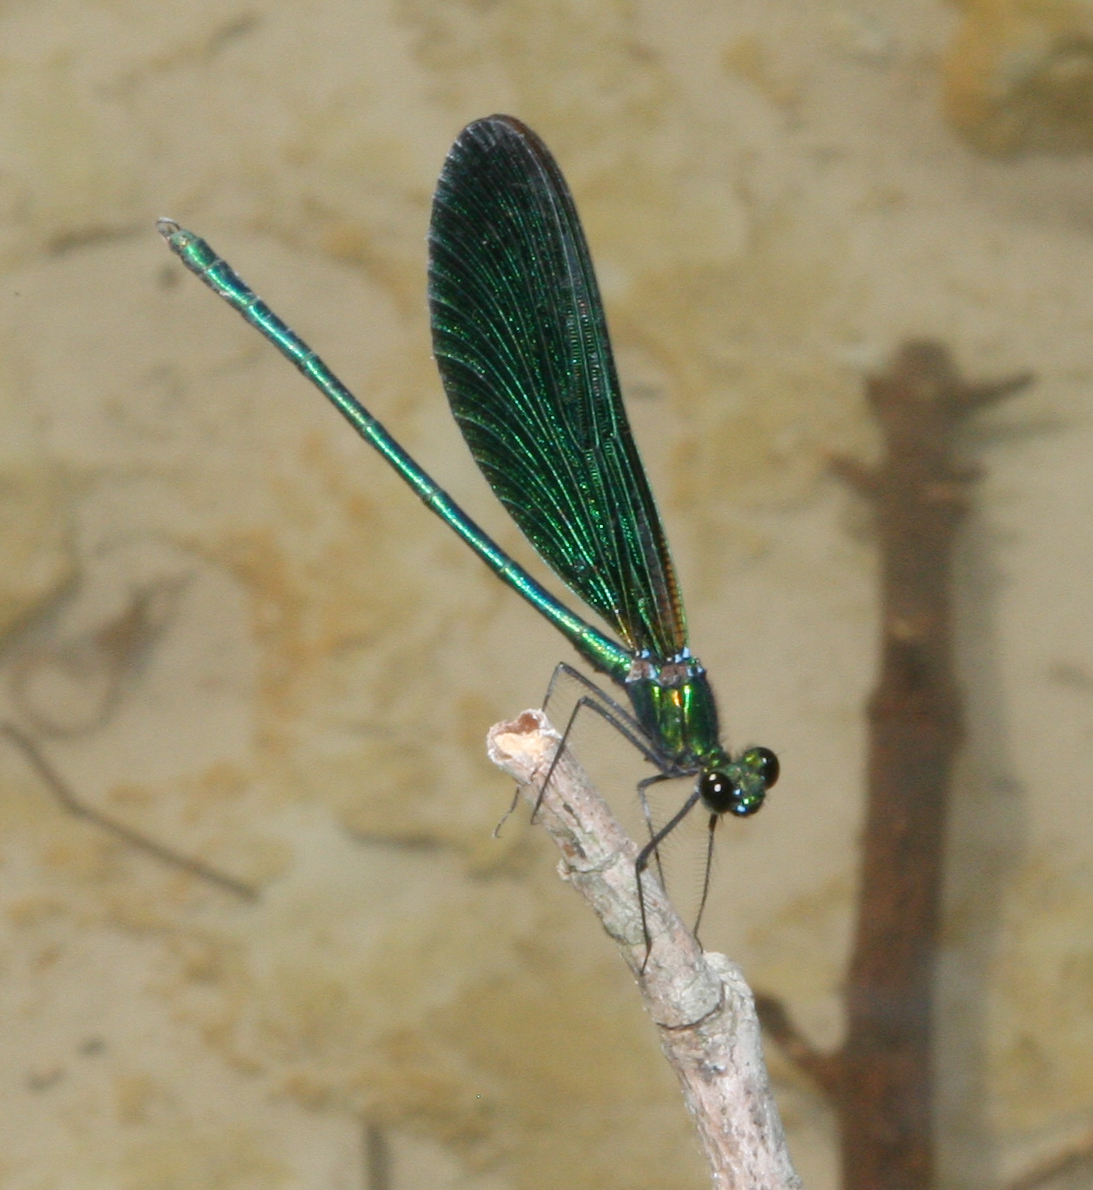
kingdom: Animalia
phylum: Arthropoda
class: Insecta
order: Odonata
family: Calopterygidae
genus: Calopteryx
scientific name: Calopteryx virgo
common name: Beautiful demoiselle
